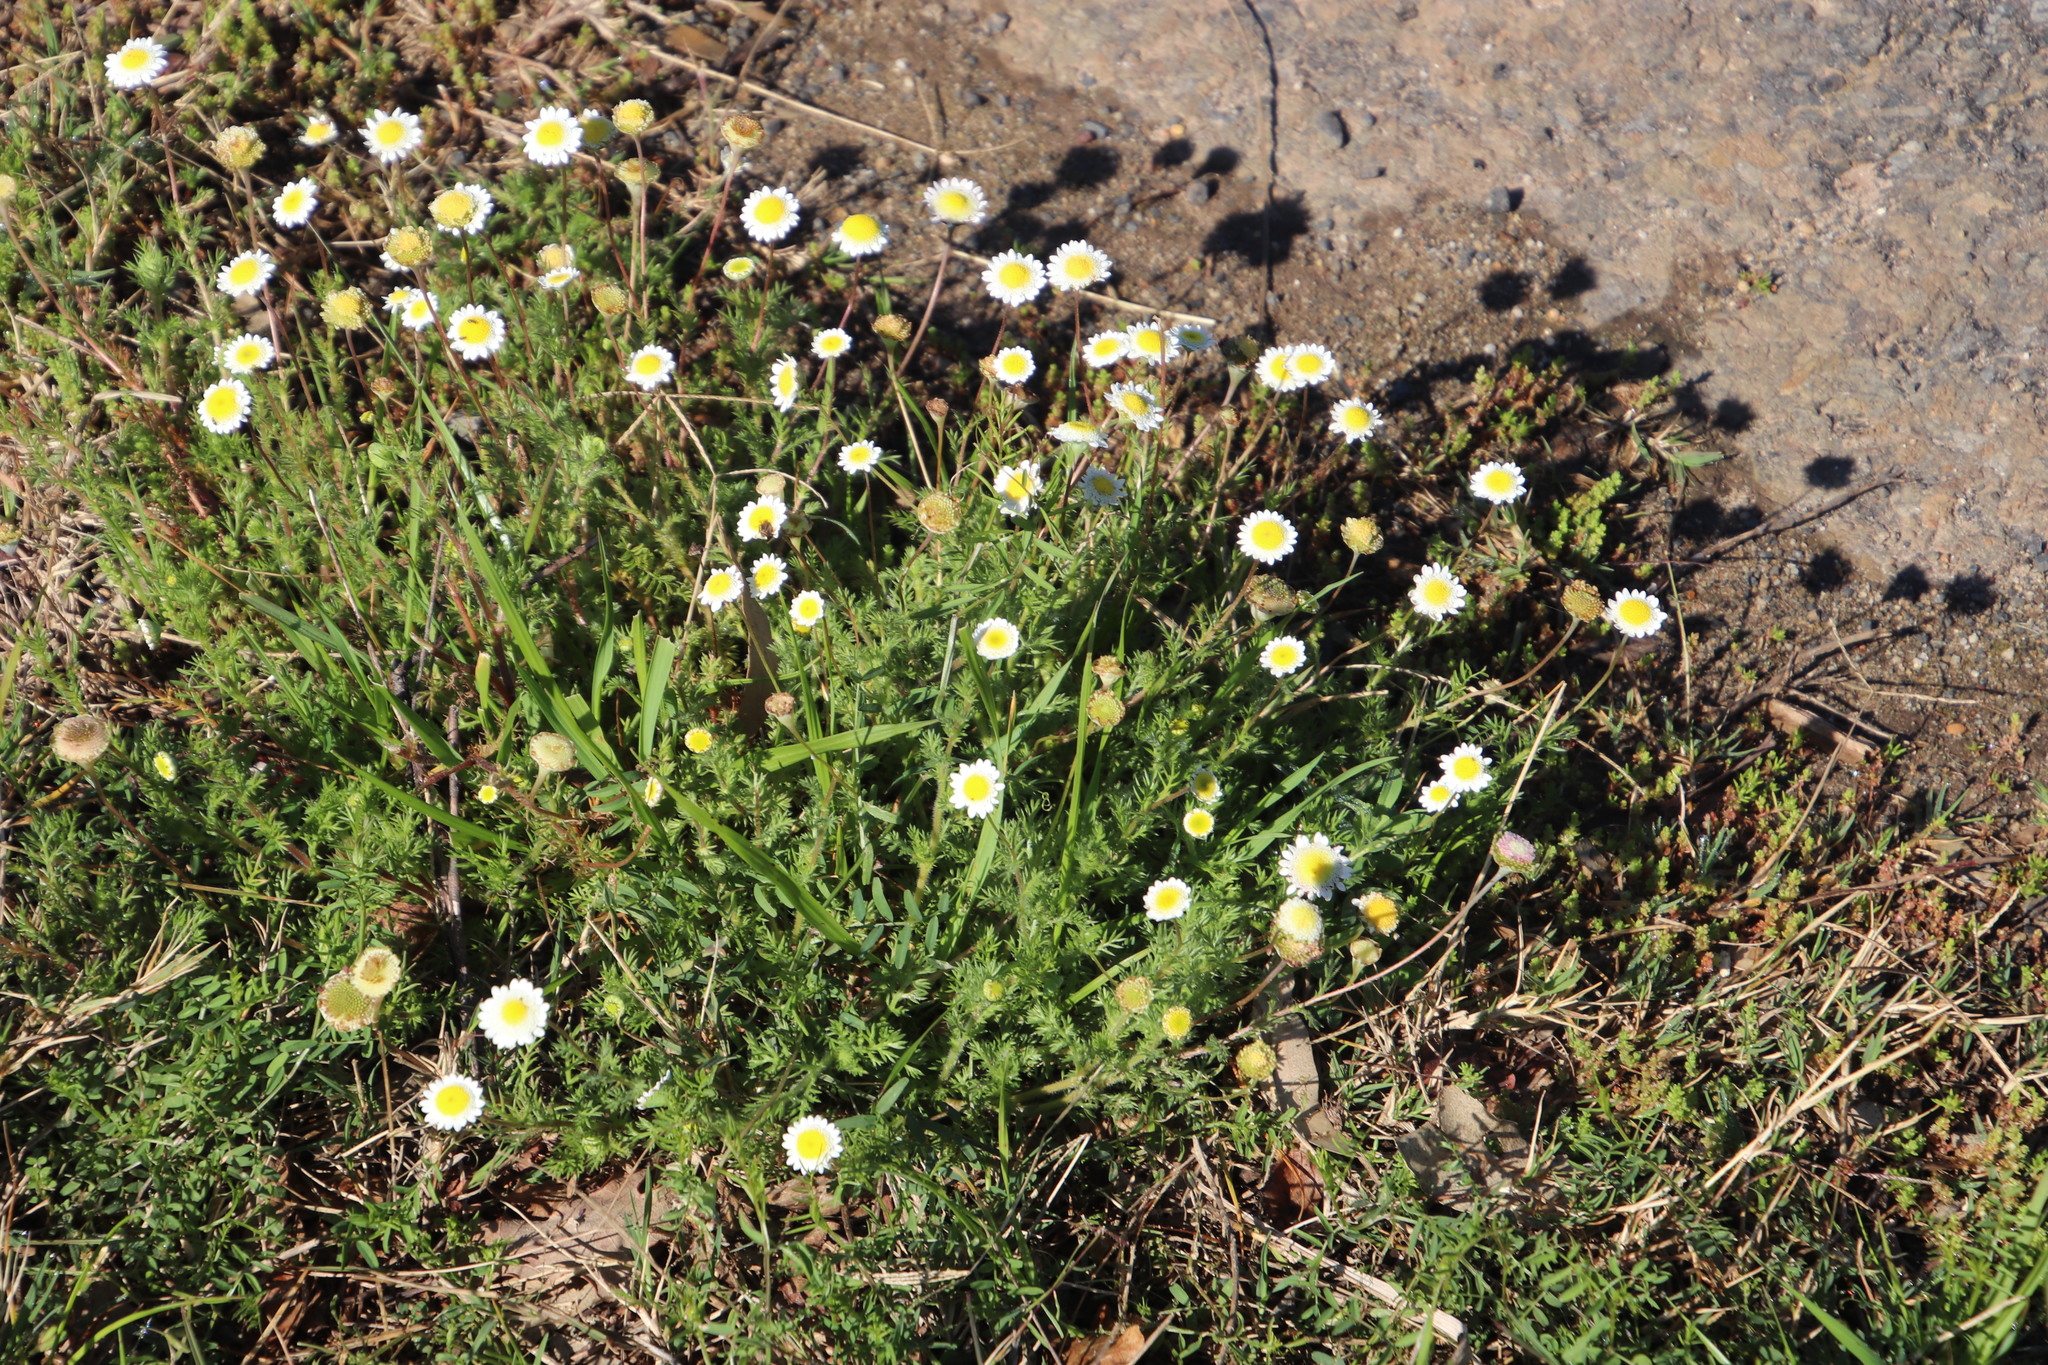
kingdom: Plantae
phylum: Tracheophyta
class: Magnoliopsida
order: Asterales
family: Asteraceae
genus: Cotula
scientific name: Cotula turbinata
